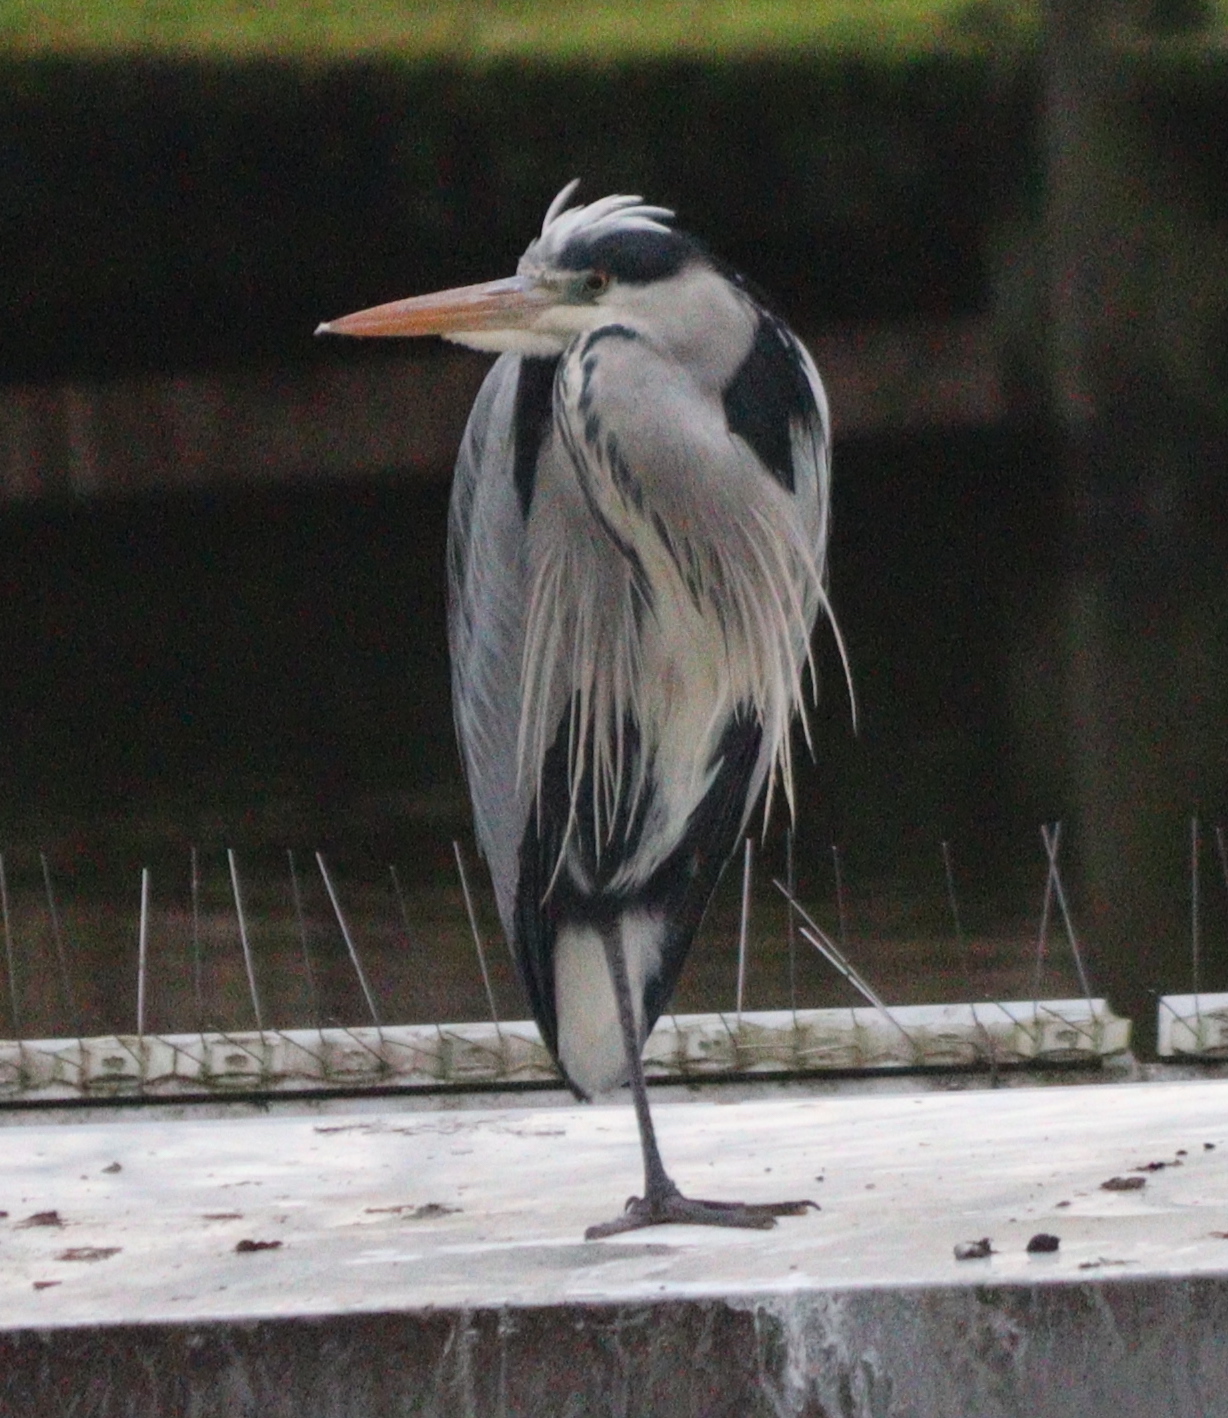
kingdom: Animalia
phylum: Chordata
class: Aves
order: Pelecaniformes
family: Ardeidae
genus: Ardea
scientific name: Ardea cinerea
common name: Grey heron
